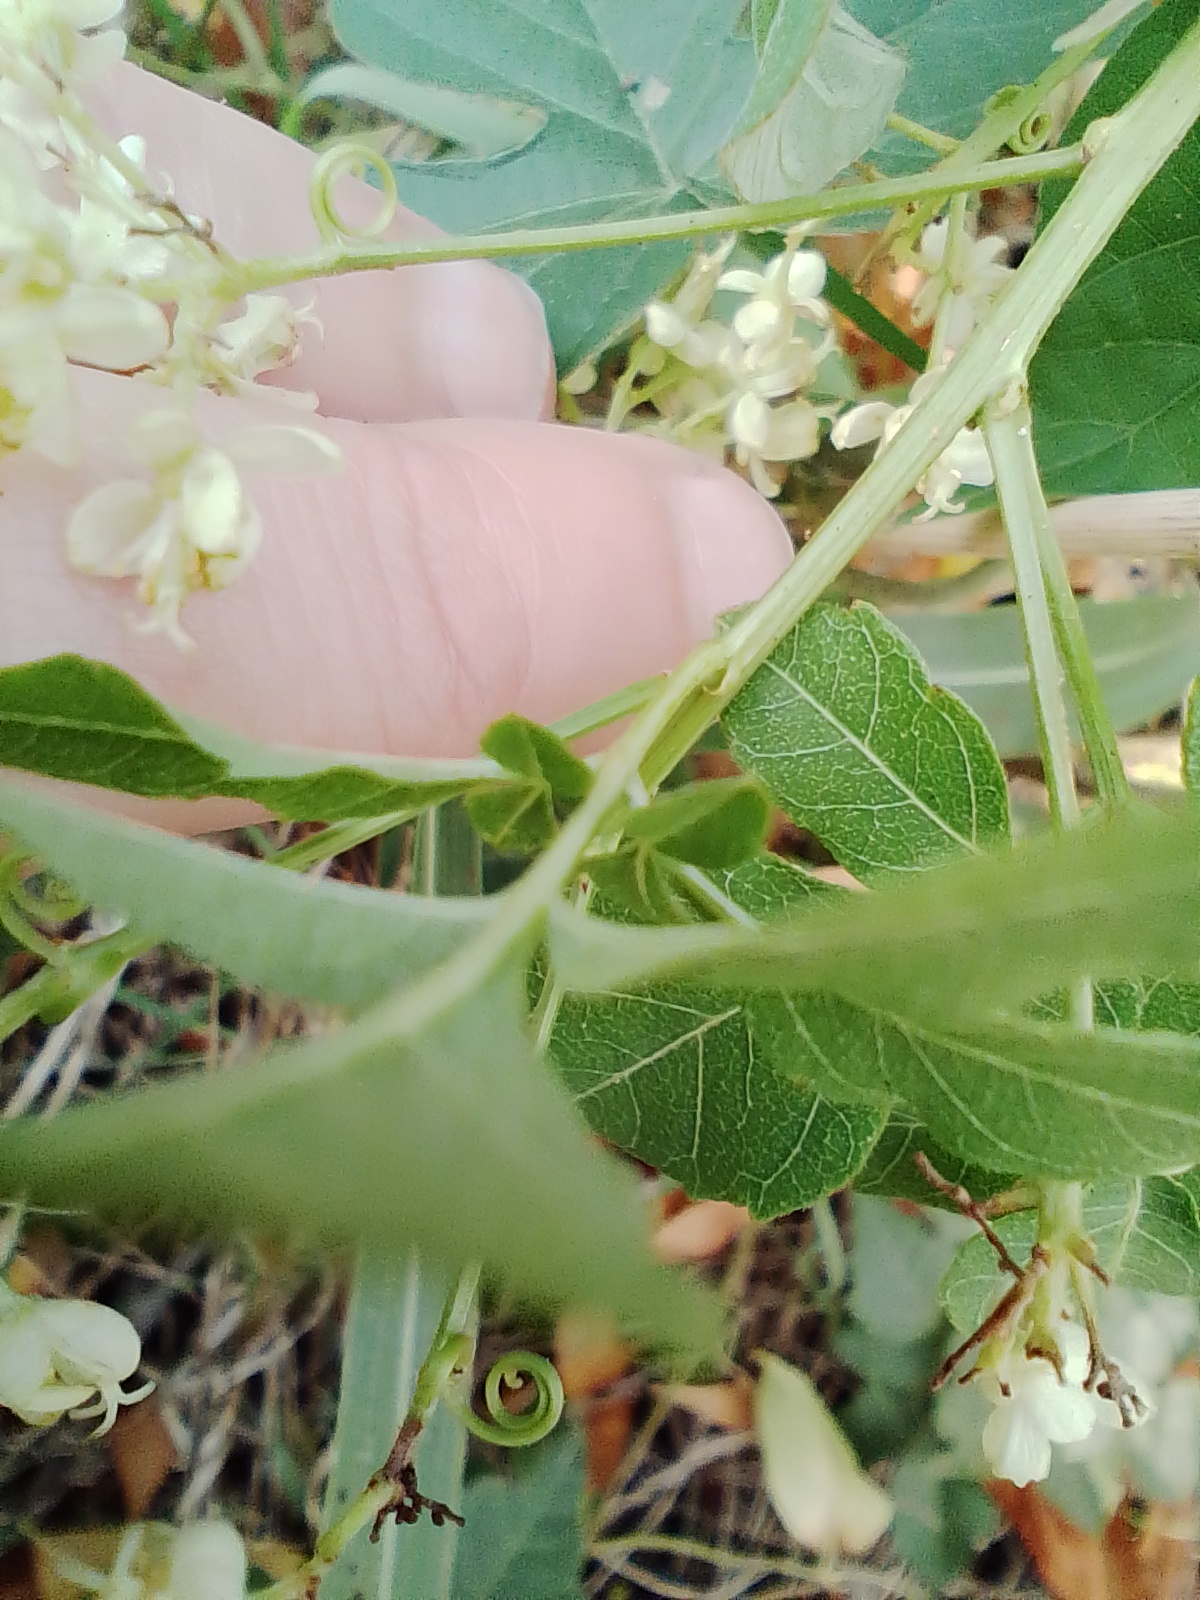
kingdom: Plantae
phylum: Tracheophyta
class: Magnoliopsida
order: Sapindales
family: Sapindaceae
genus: Cardiospermum
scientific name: Cardiospermum grandiflorum
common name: Balloon vine
